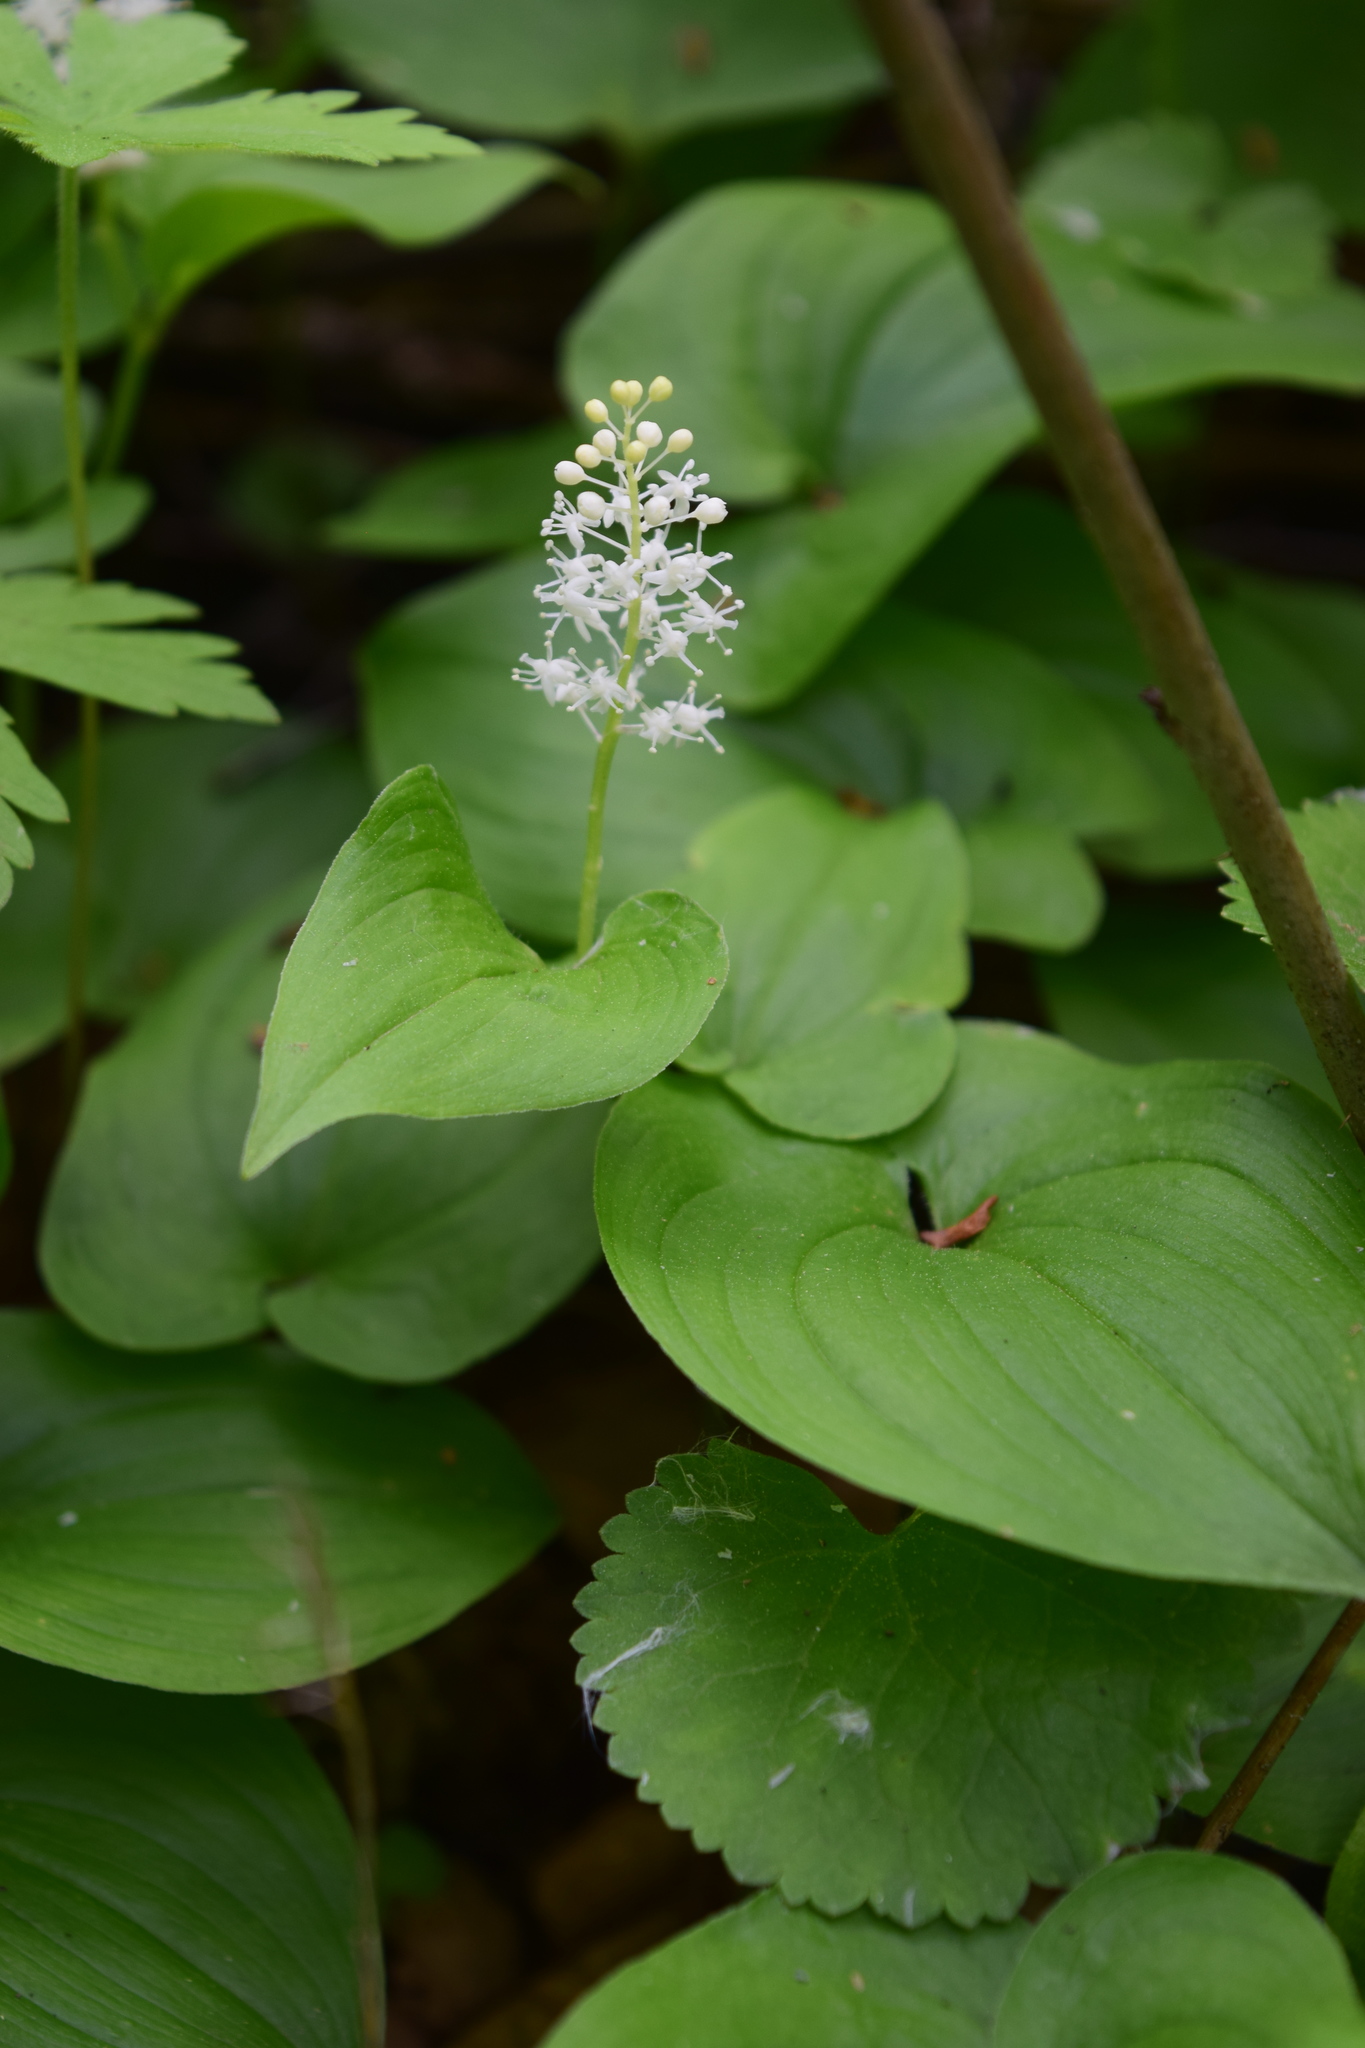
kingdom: Plantae
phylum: Tracheophyta
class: Liliopsida
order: Asparagales
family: Asparagaceae
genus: Maianthemum
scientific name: Maianthemum bifolium
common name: May lily
